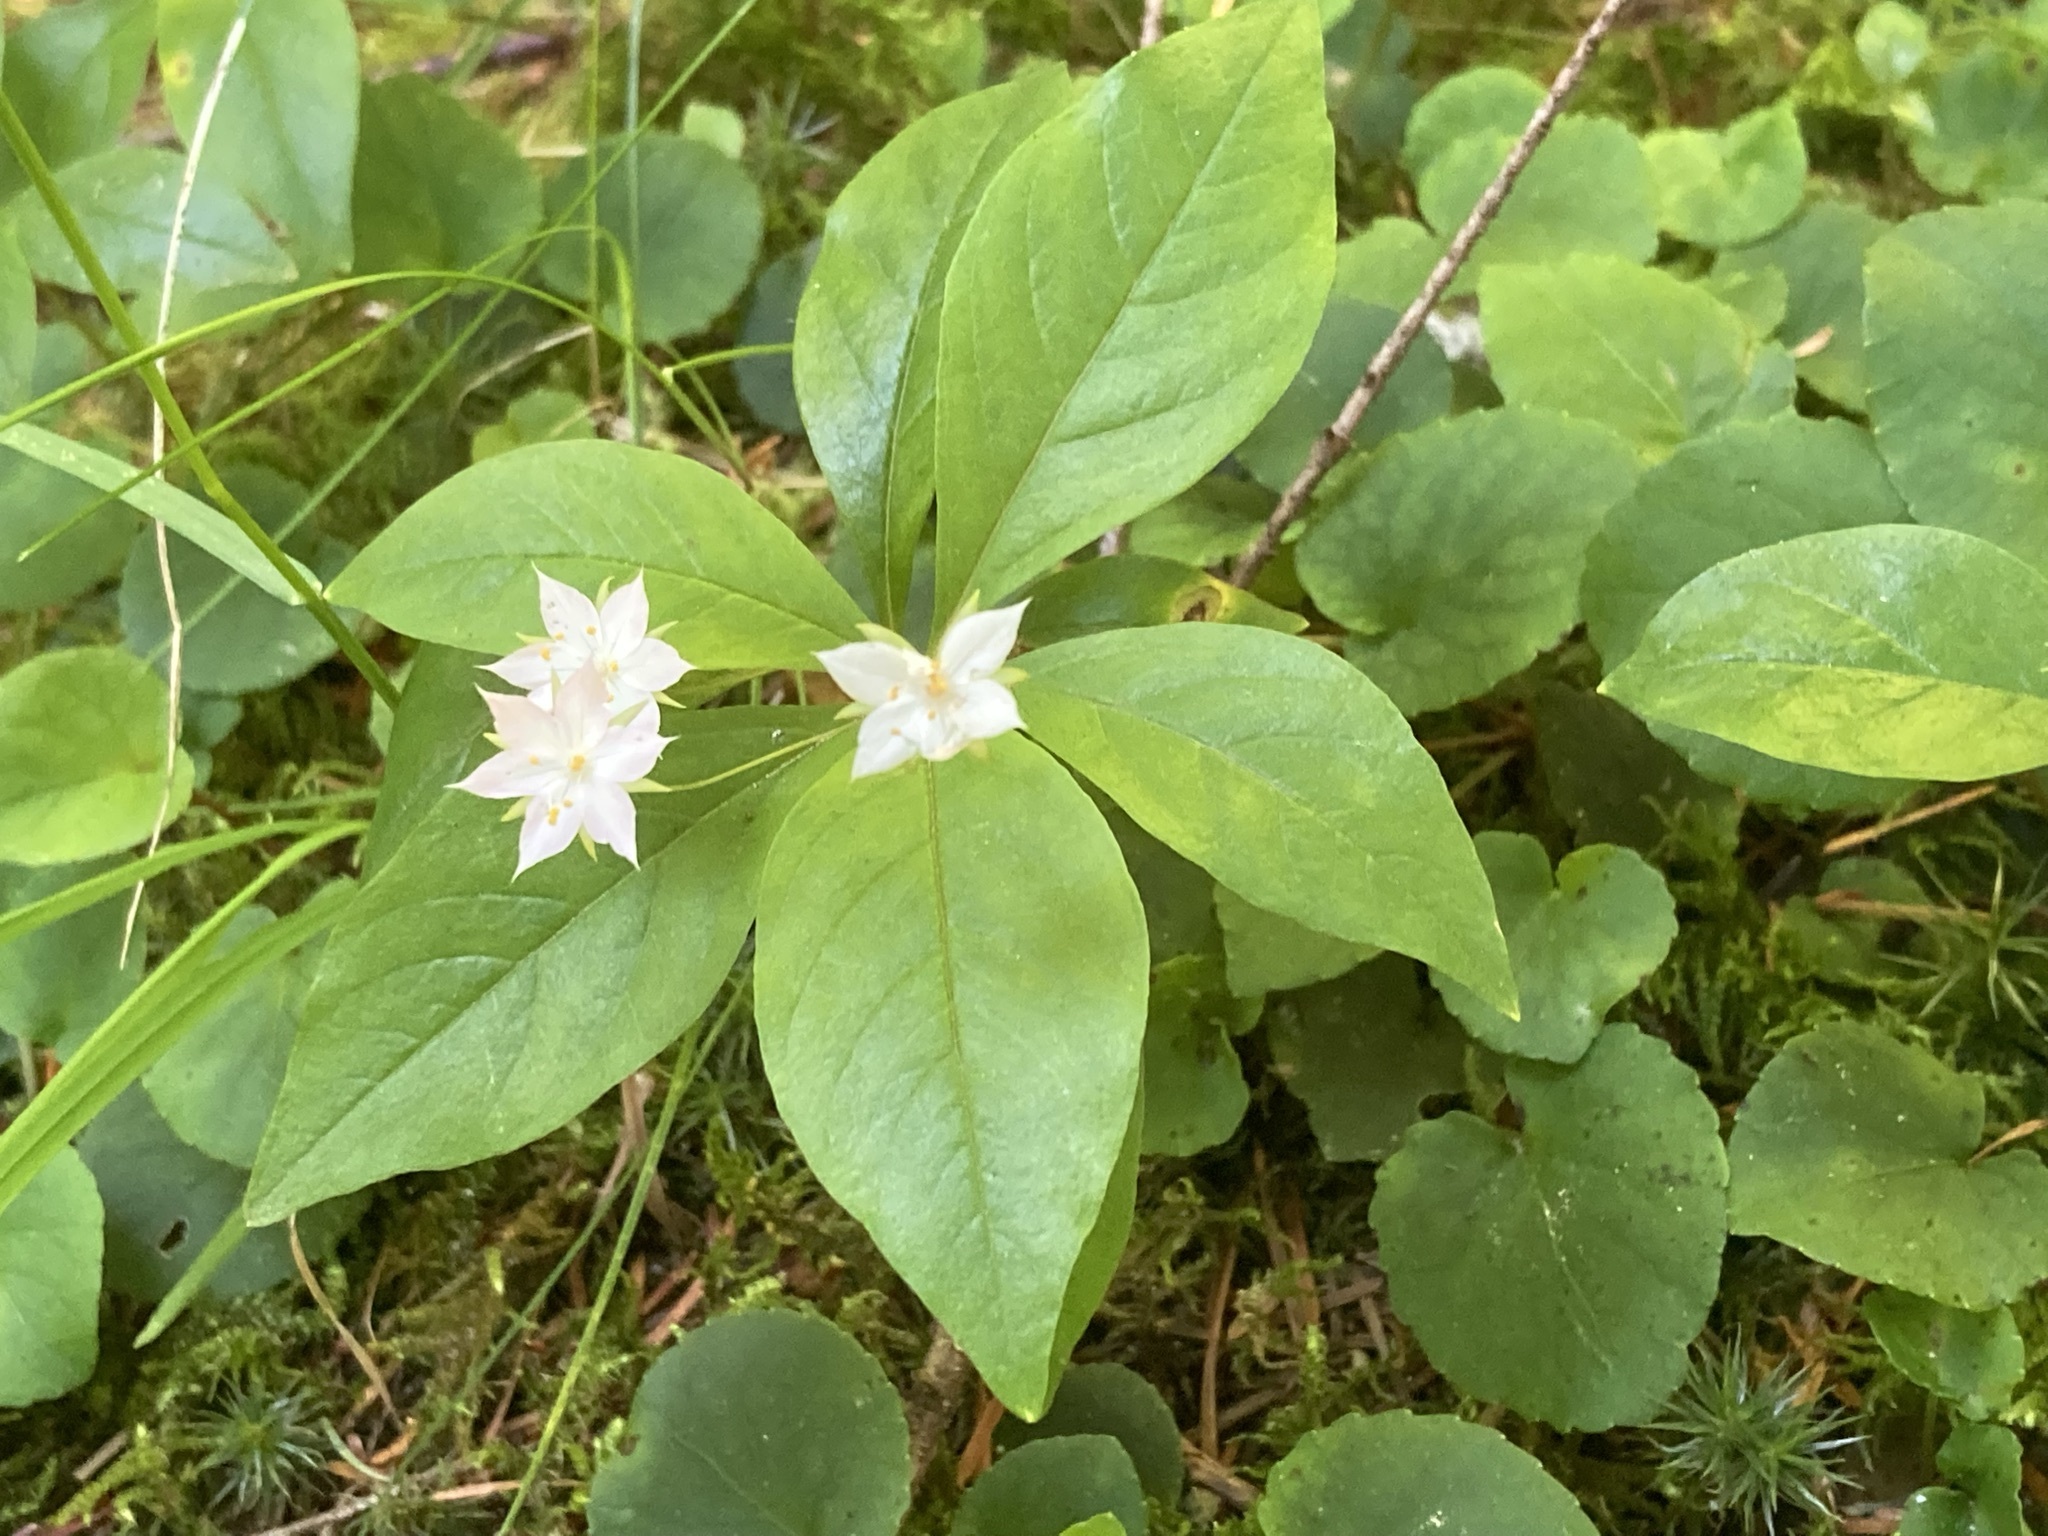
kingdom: Plantae
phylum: Tracheophyta
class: Magnoliopsida
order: Ericales
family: Primulaceae
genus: Lysimachia
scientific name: Lysimachia latifolia
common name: Pacific starflower
